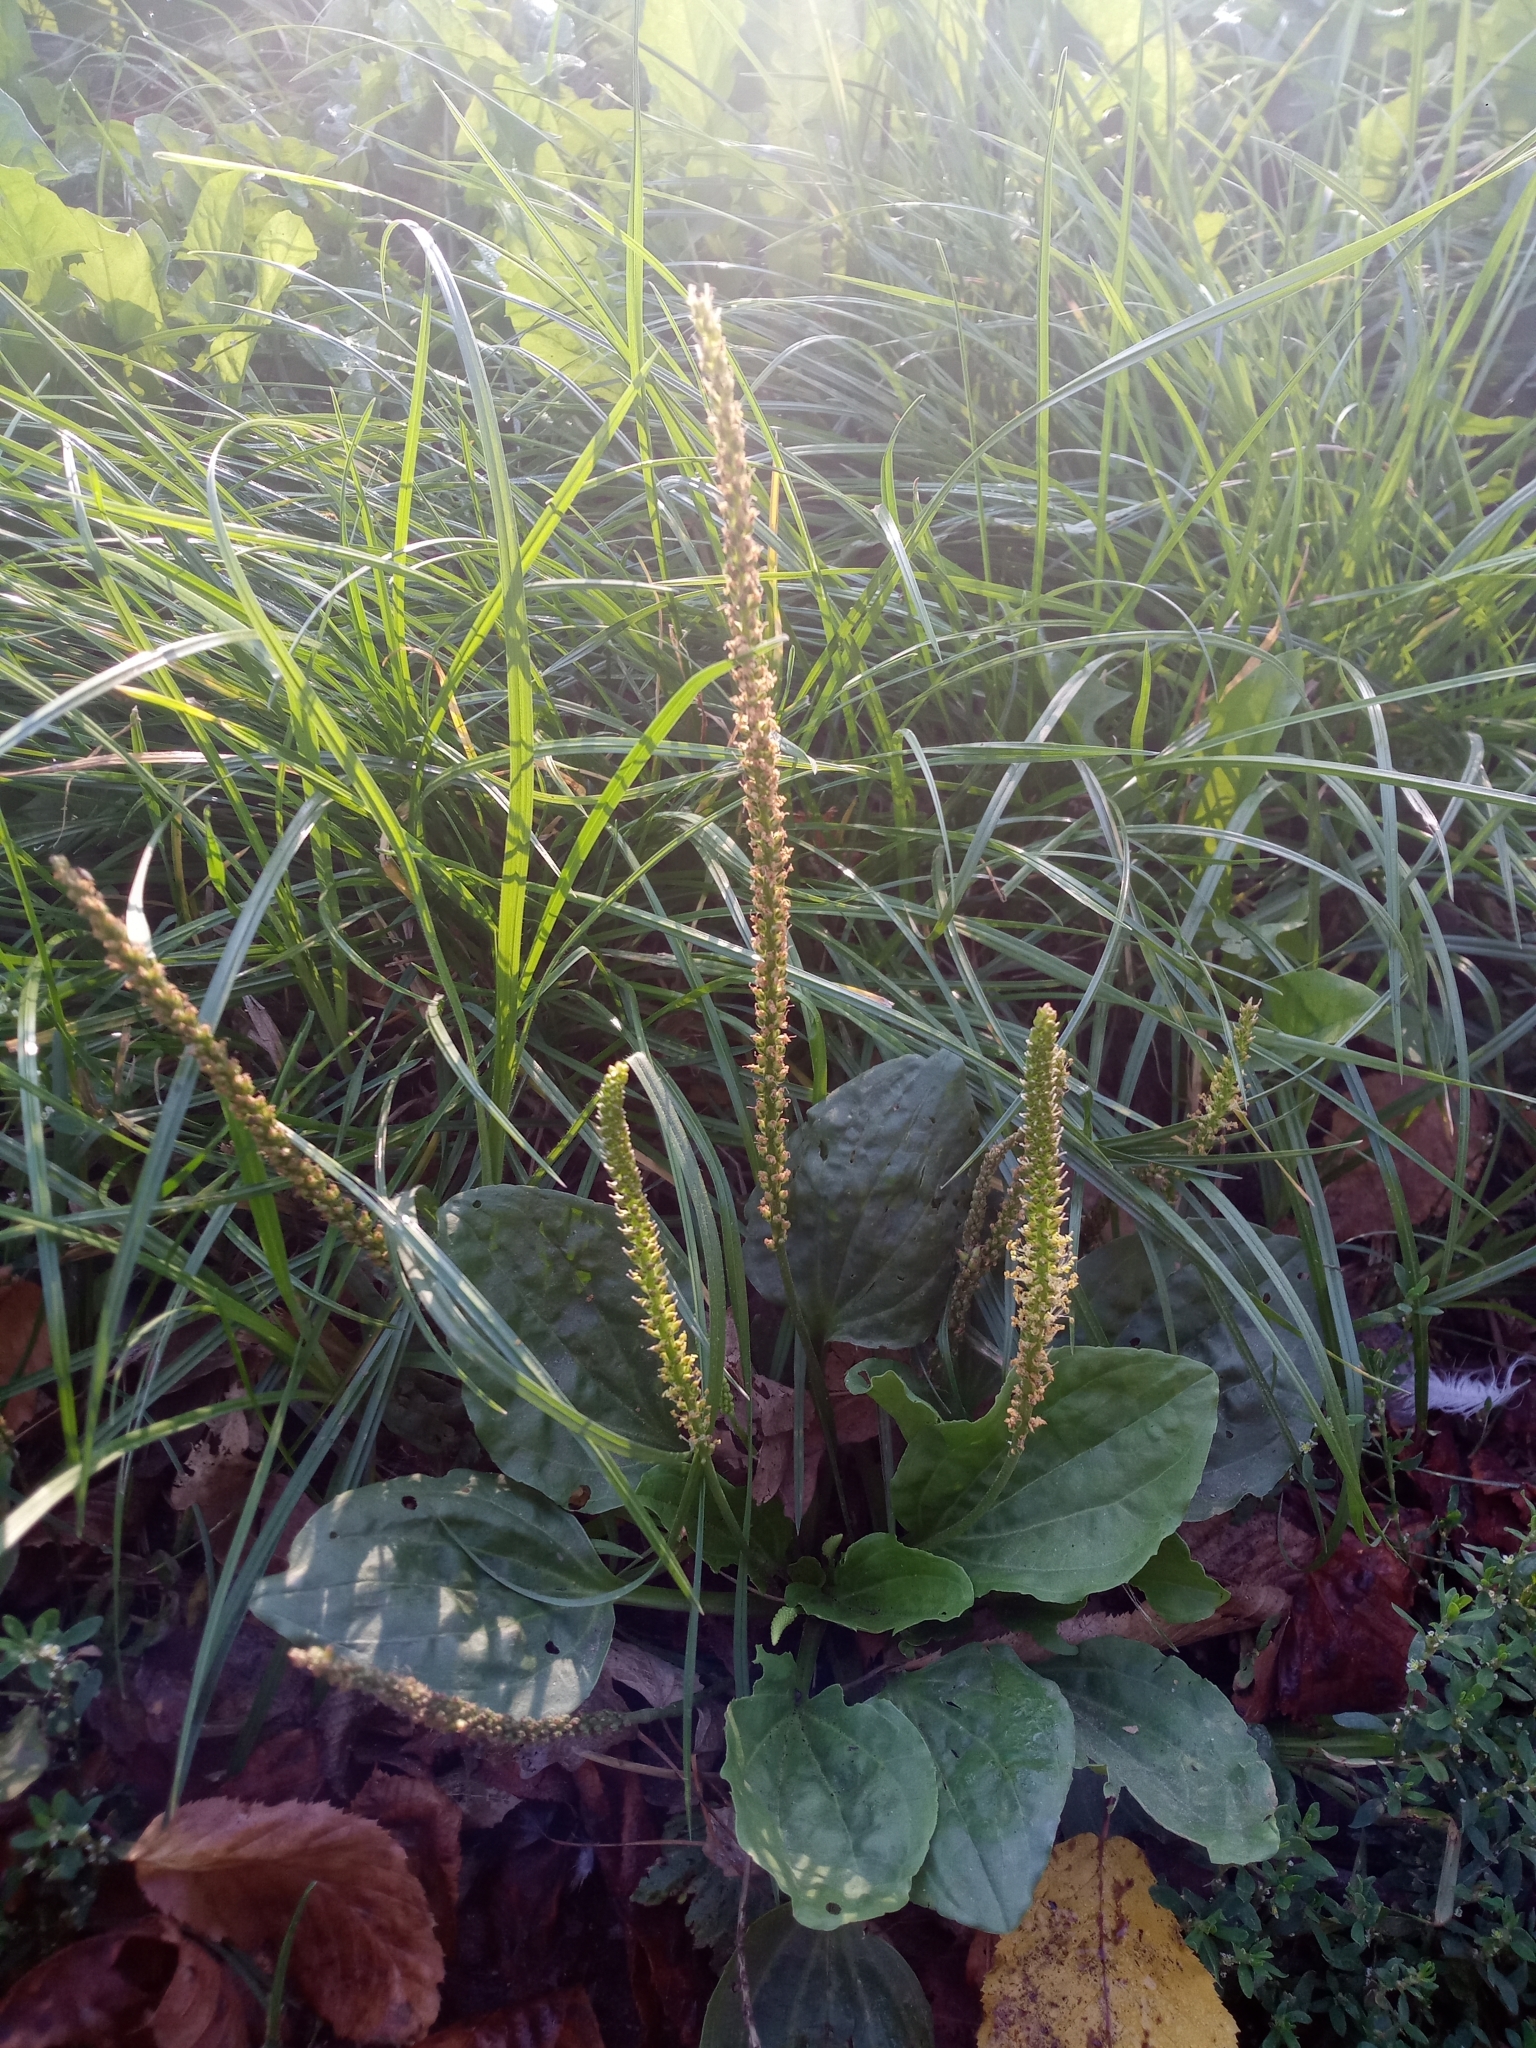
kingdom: Plantae
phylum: Tracheophyta
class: Magnoliopsida
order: Lamiales
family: Plantaginaceae
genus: Plantago
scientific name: Plantago major
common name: Common plantain
